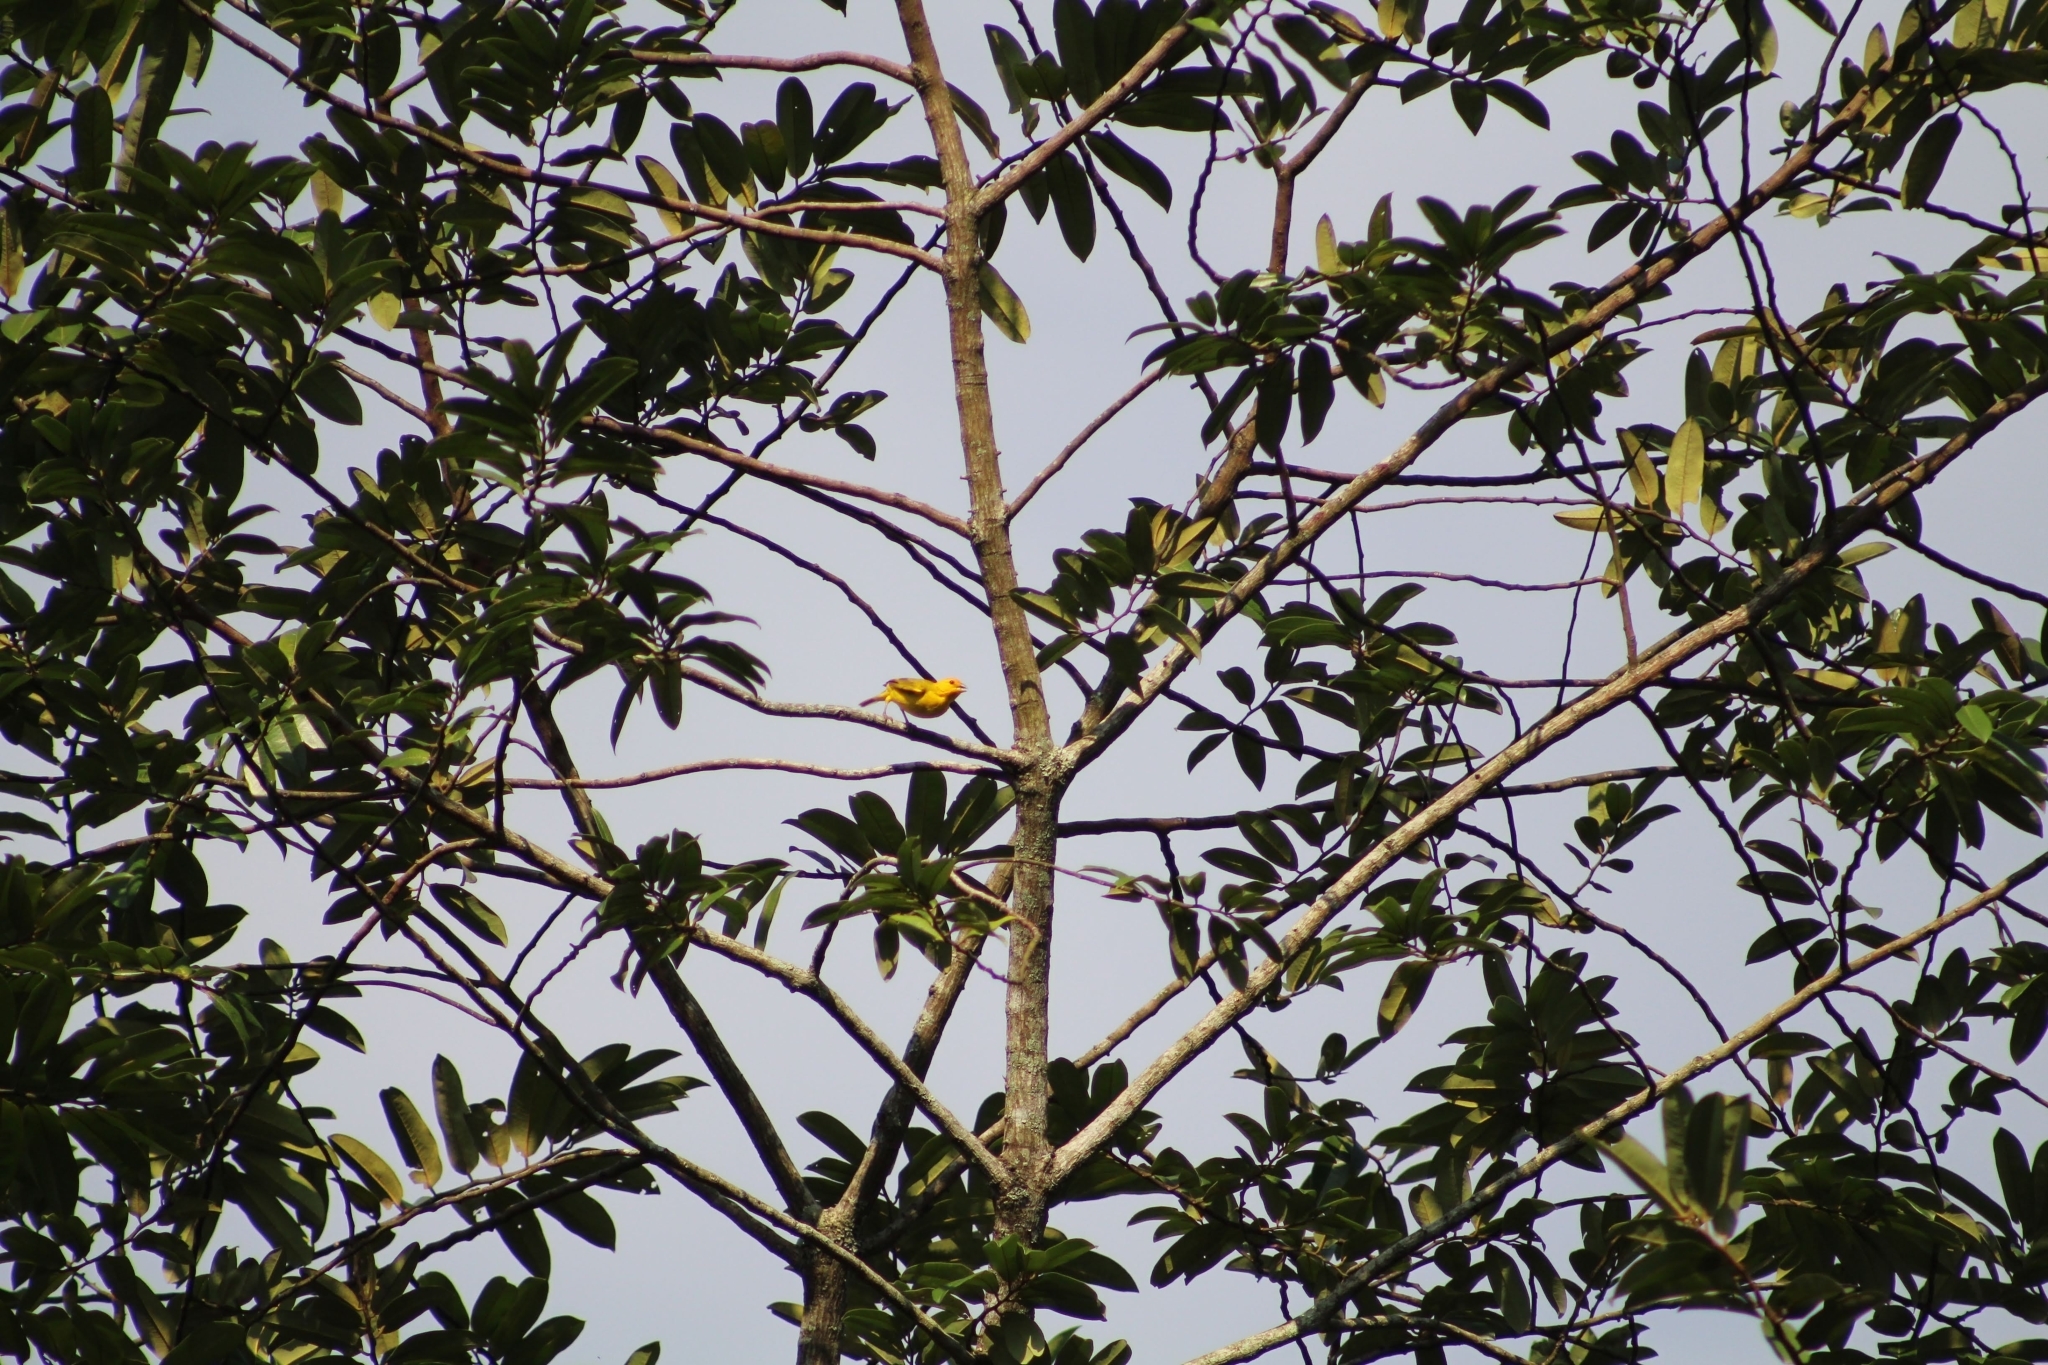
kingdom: Animalia
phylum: Chordata
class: Aves
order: Passeriformes
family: Thraupidae
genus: Sicalis
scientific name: Sicalis flaveola
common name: Saffron finch
